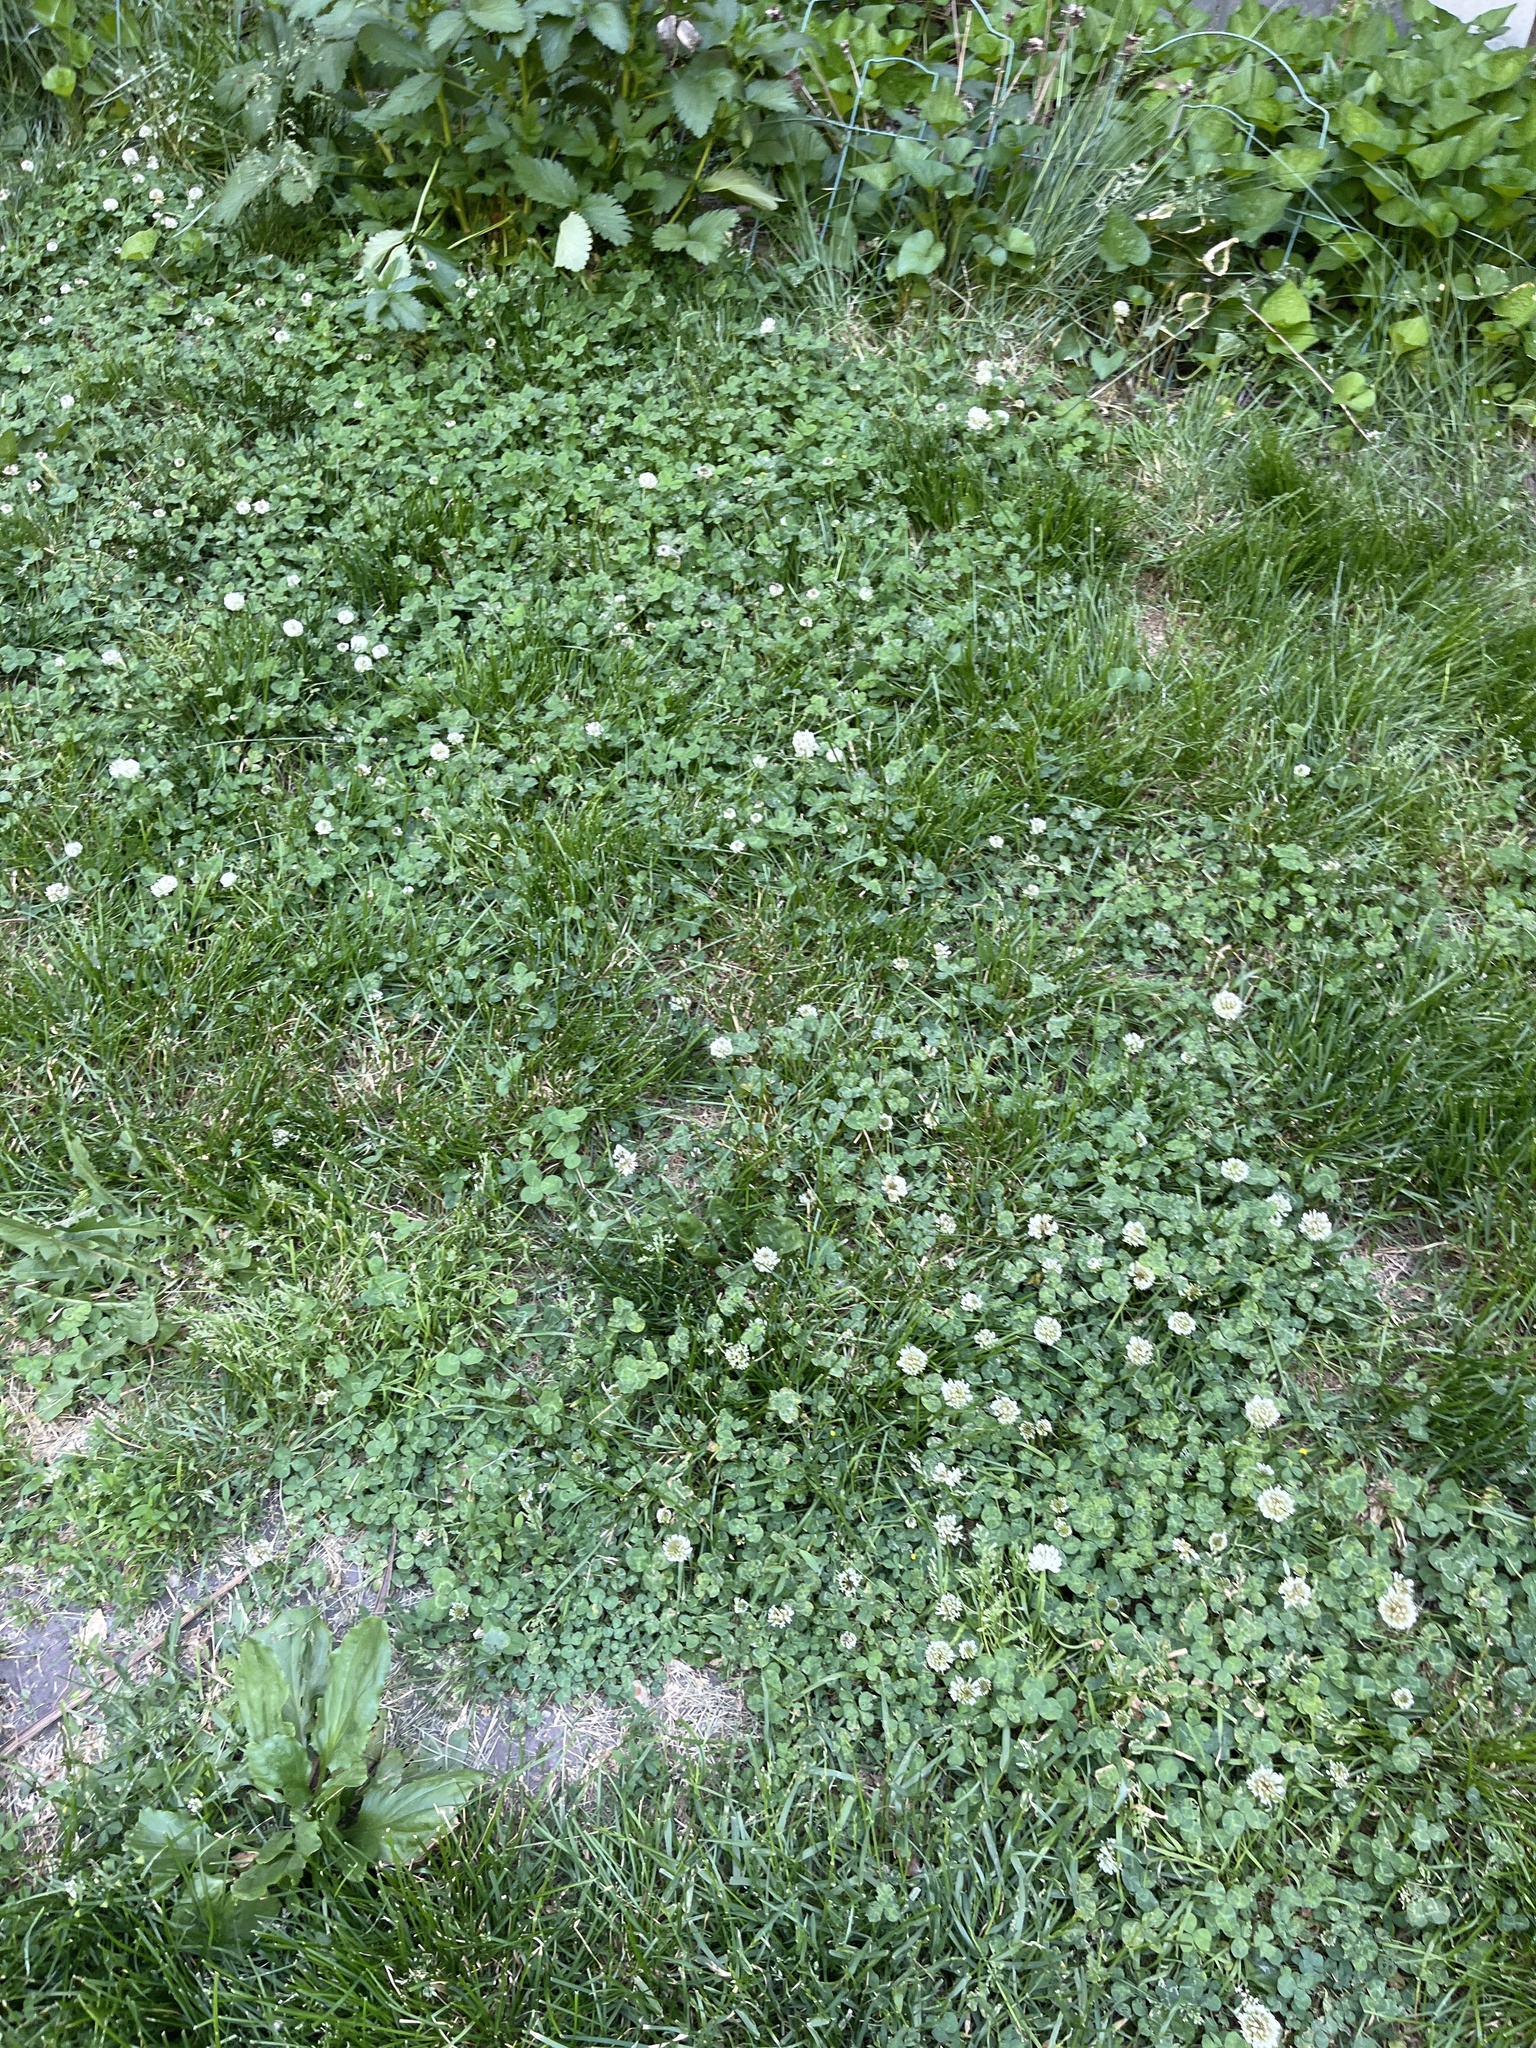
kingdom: Plantae
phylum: Tracheophyta
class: Magnoliopsida
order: Fabales
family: Fabaceae
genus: Trifolium
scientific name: Trifolium repens
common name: White clover
